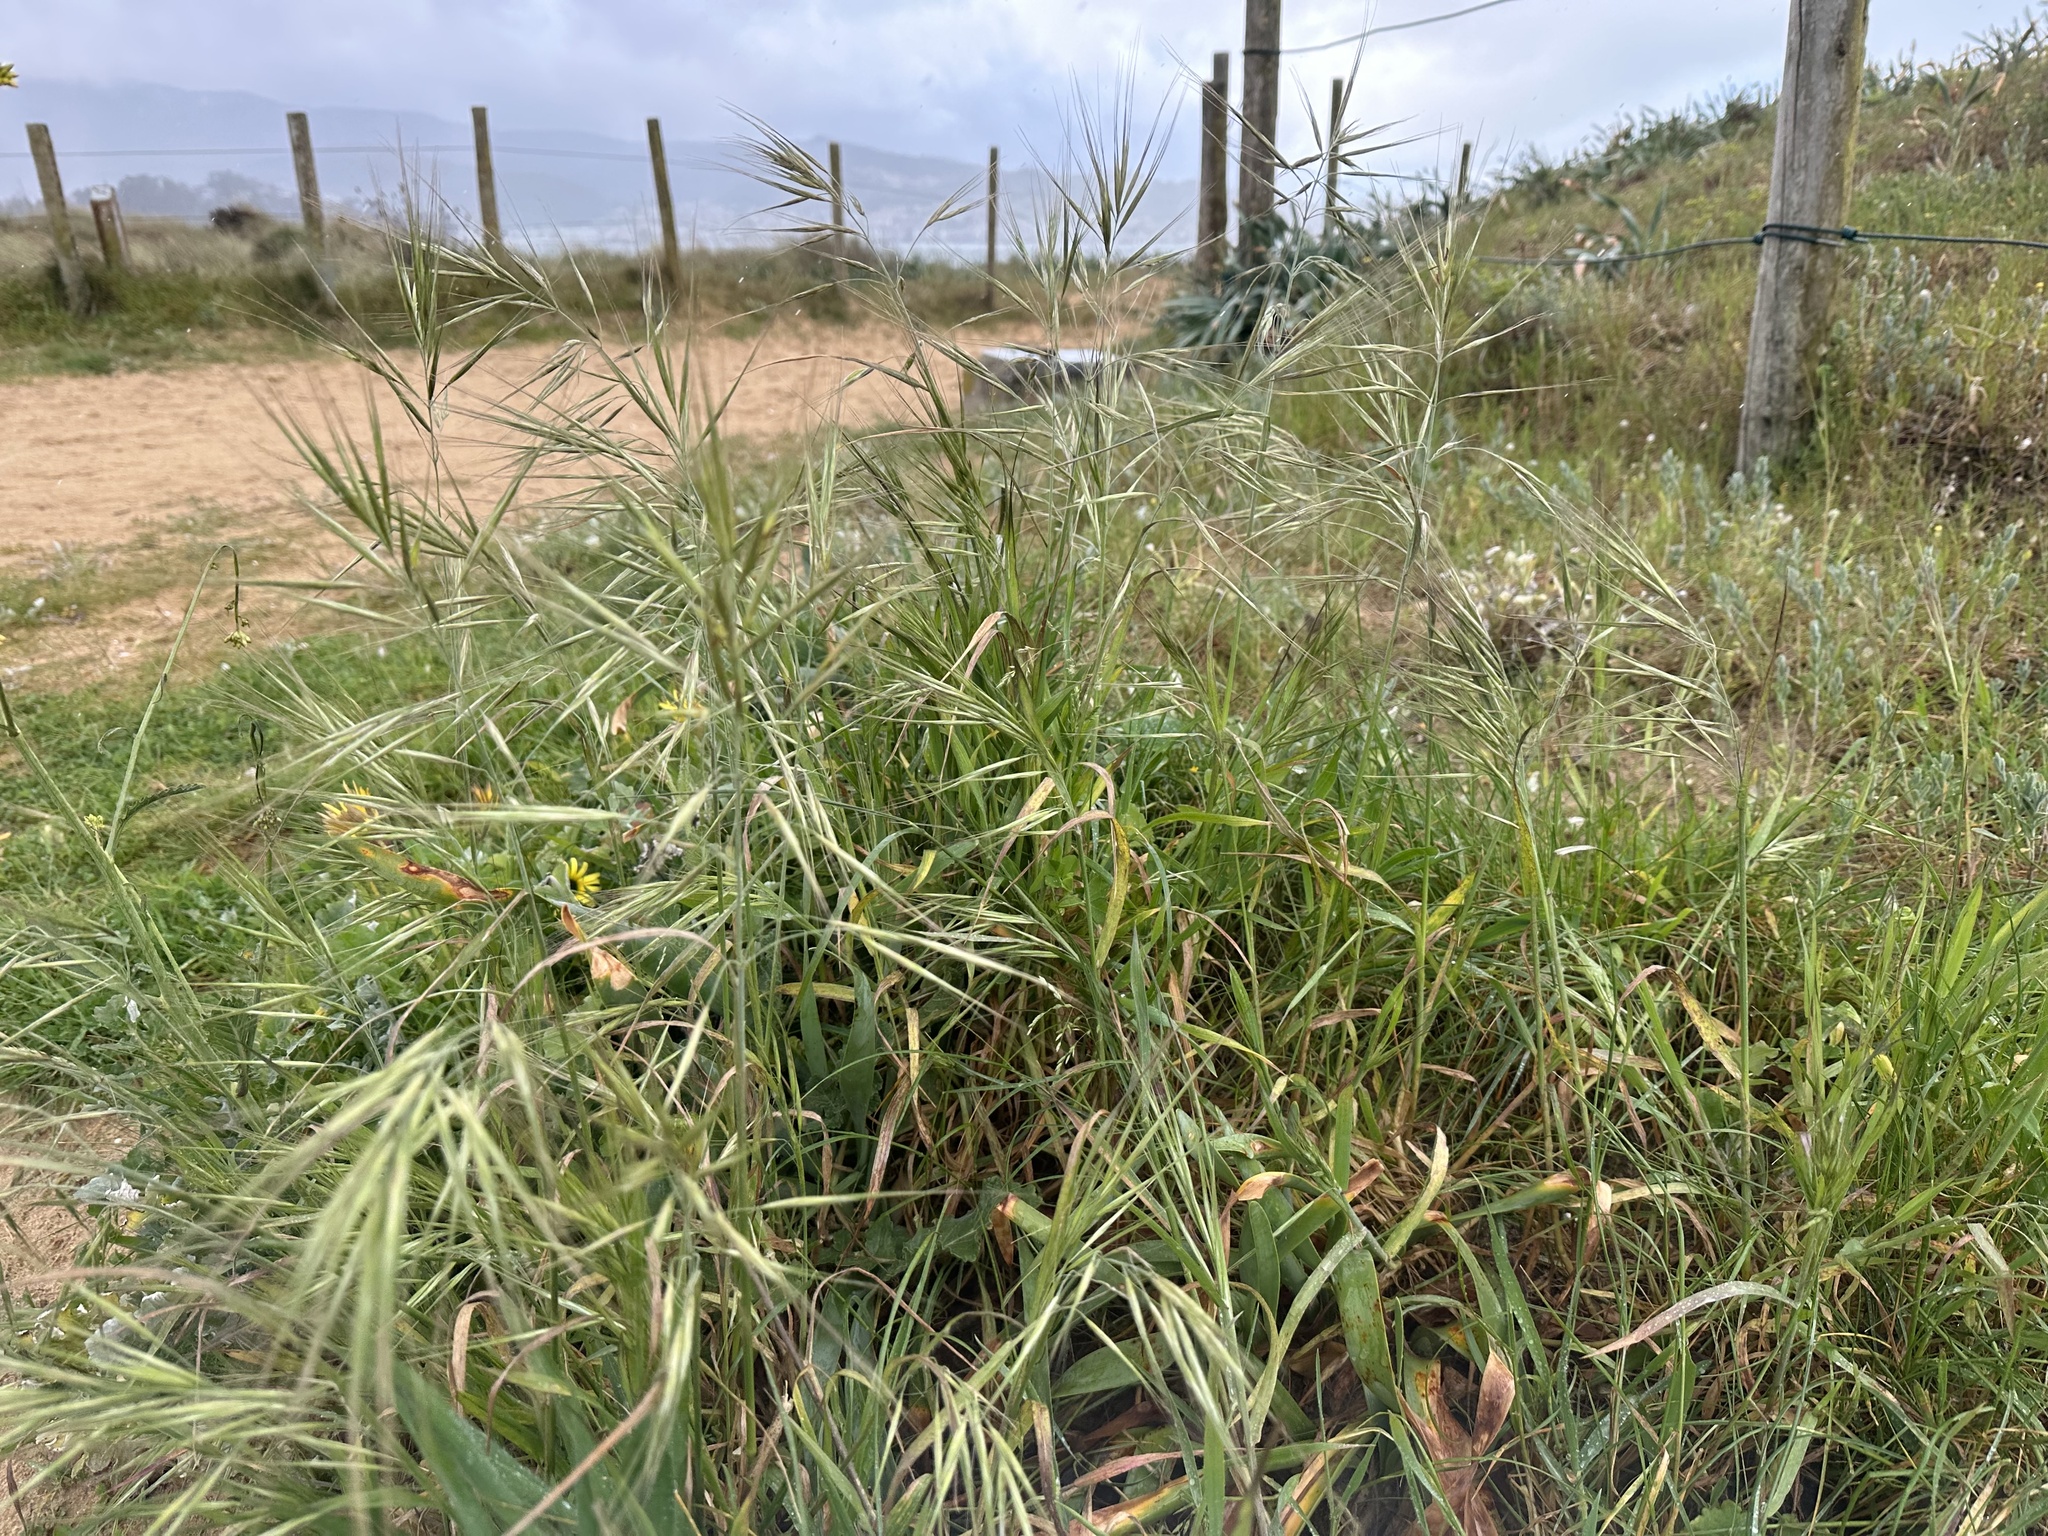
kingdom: Plantae
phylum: Tracheophyta
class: Liliopsida
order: Poales
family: Poaceae
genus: Bromus
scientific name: Bromus diandrus
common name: Ripgut brome
